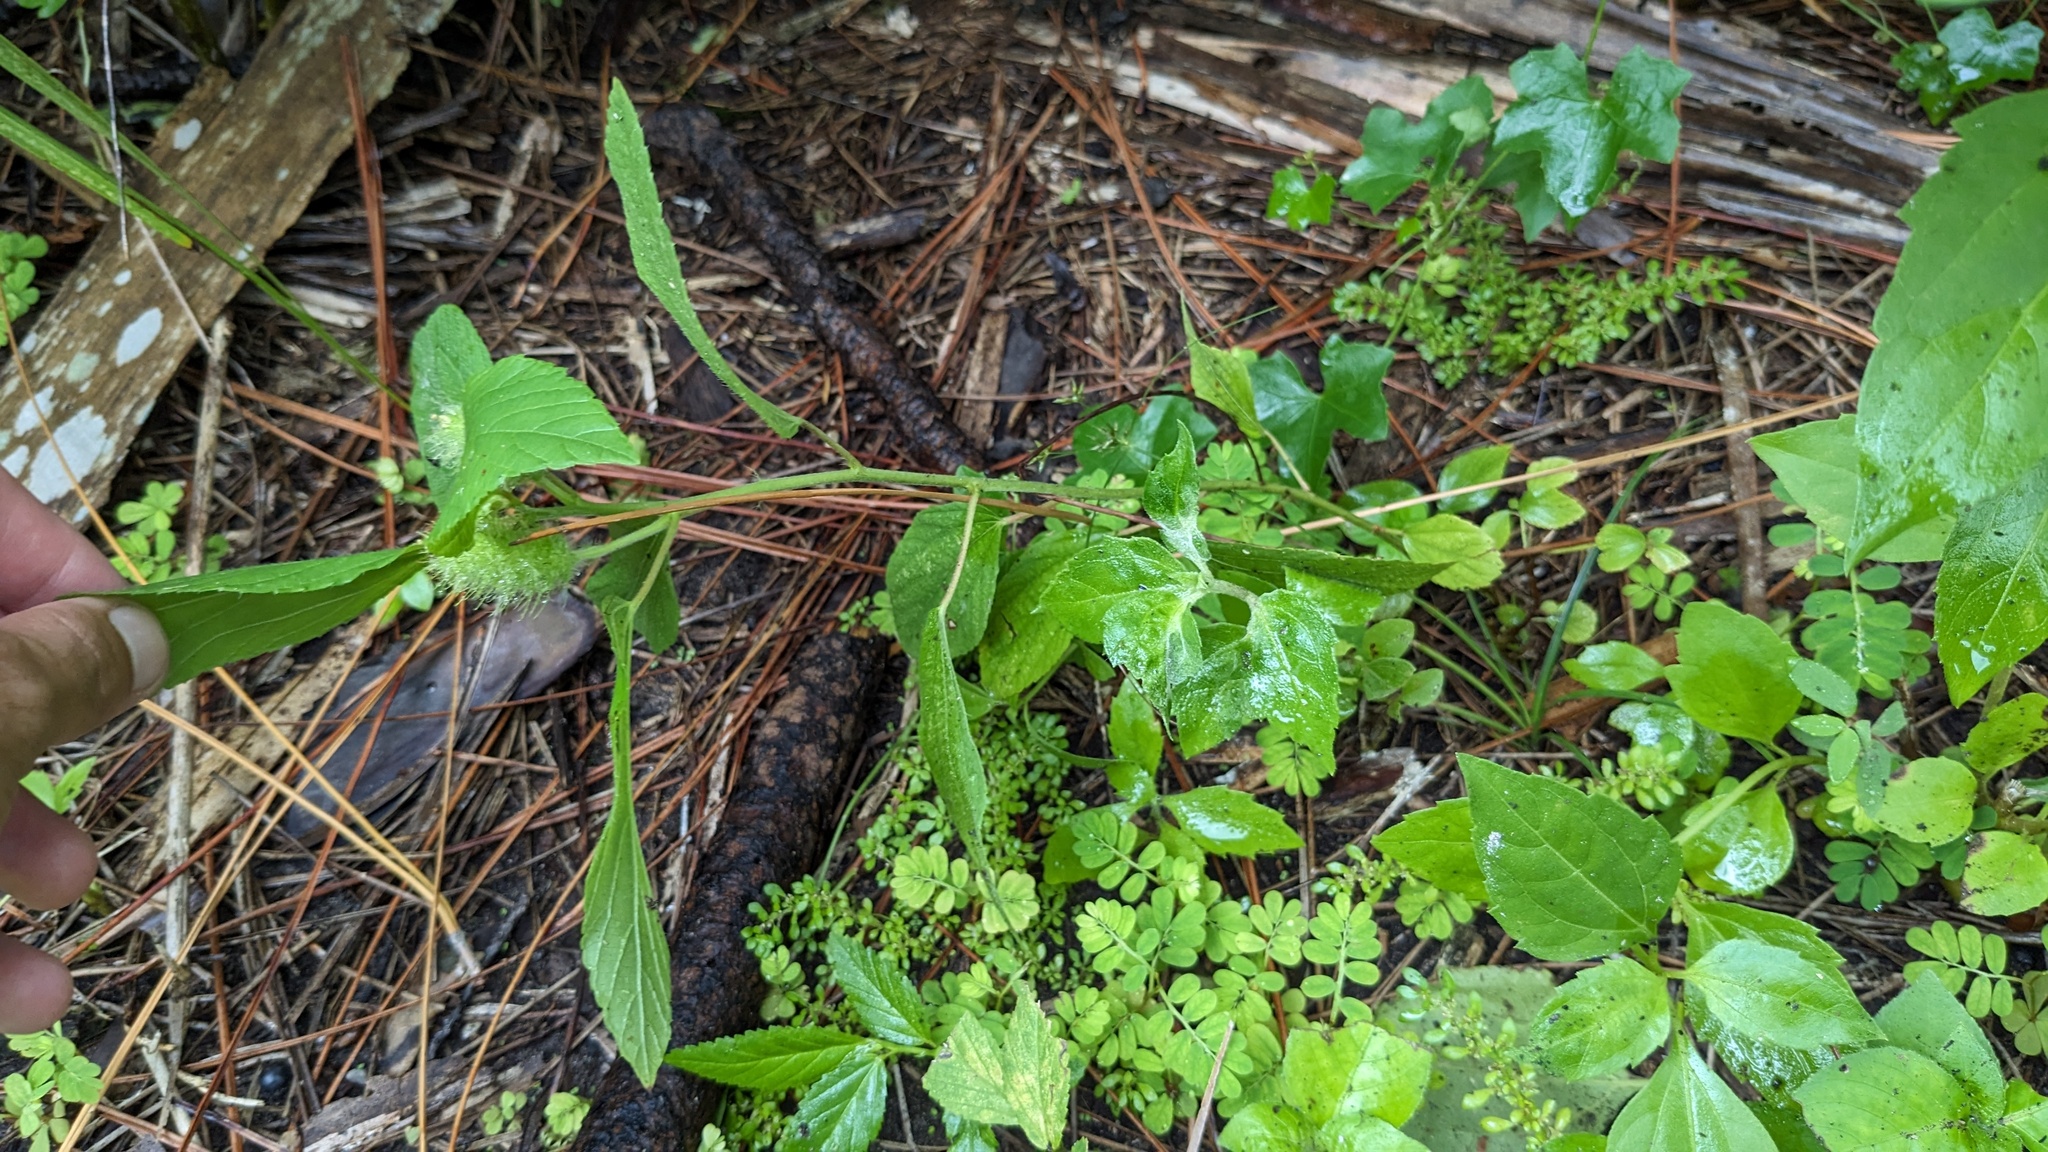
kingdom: Plantae
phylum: Tracheophyta
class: Magnoliopsida
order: Malpighiales
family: Euphorbiaceae
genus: Acalypha
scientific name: Acalypha arvensis
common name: Field copperleaf
